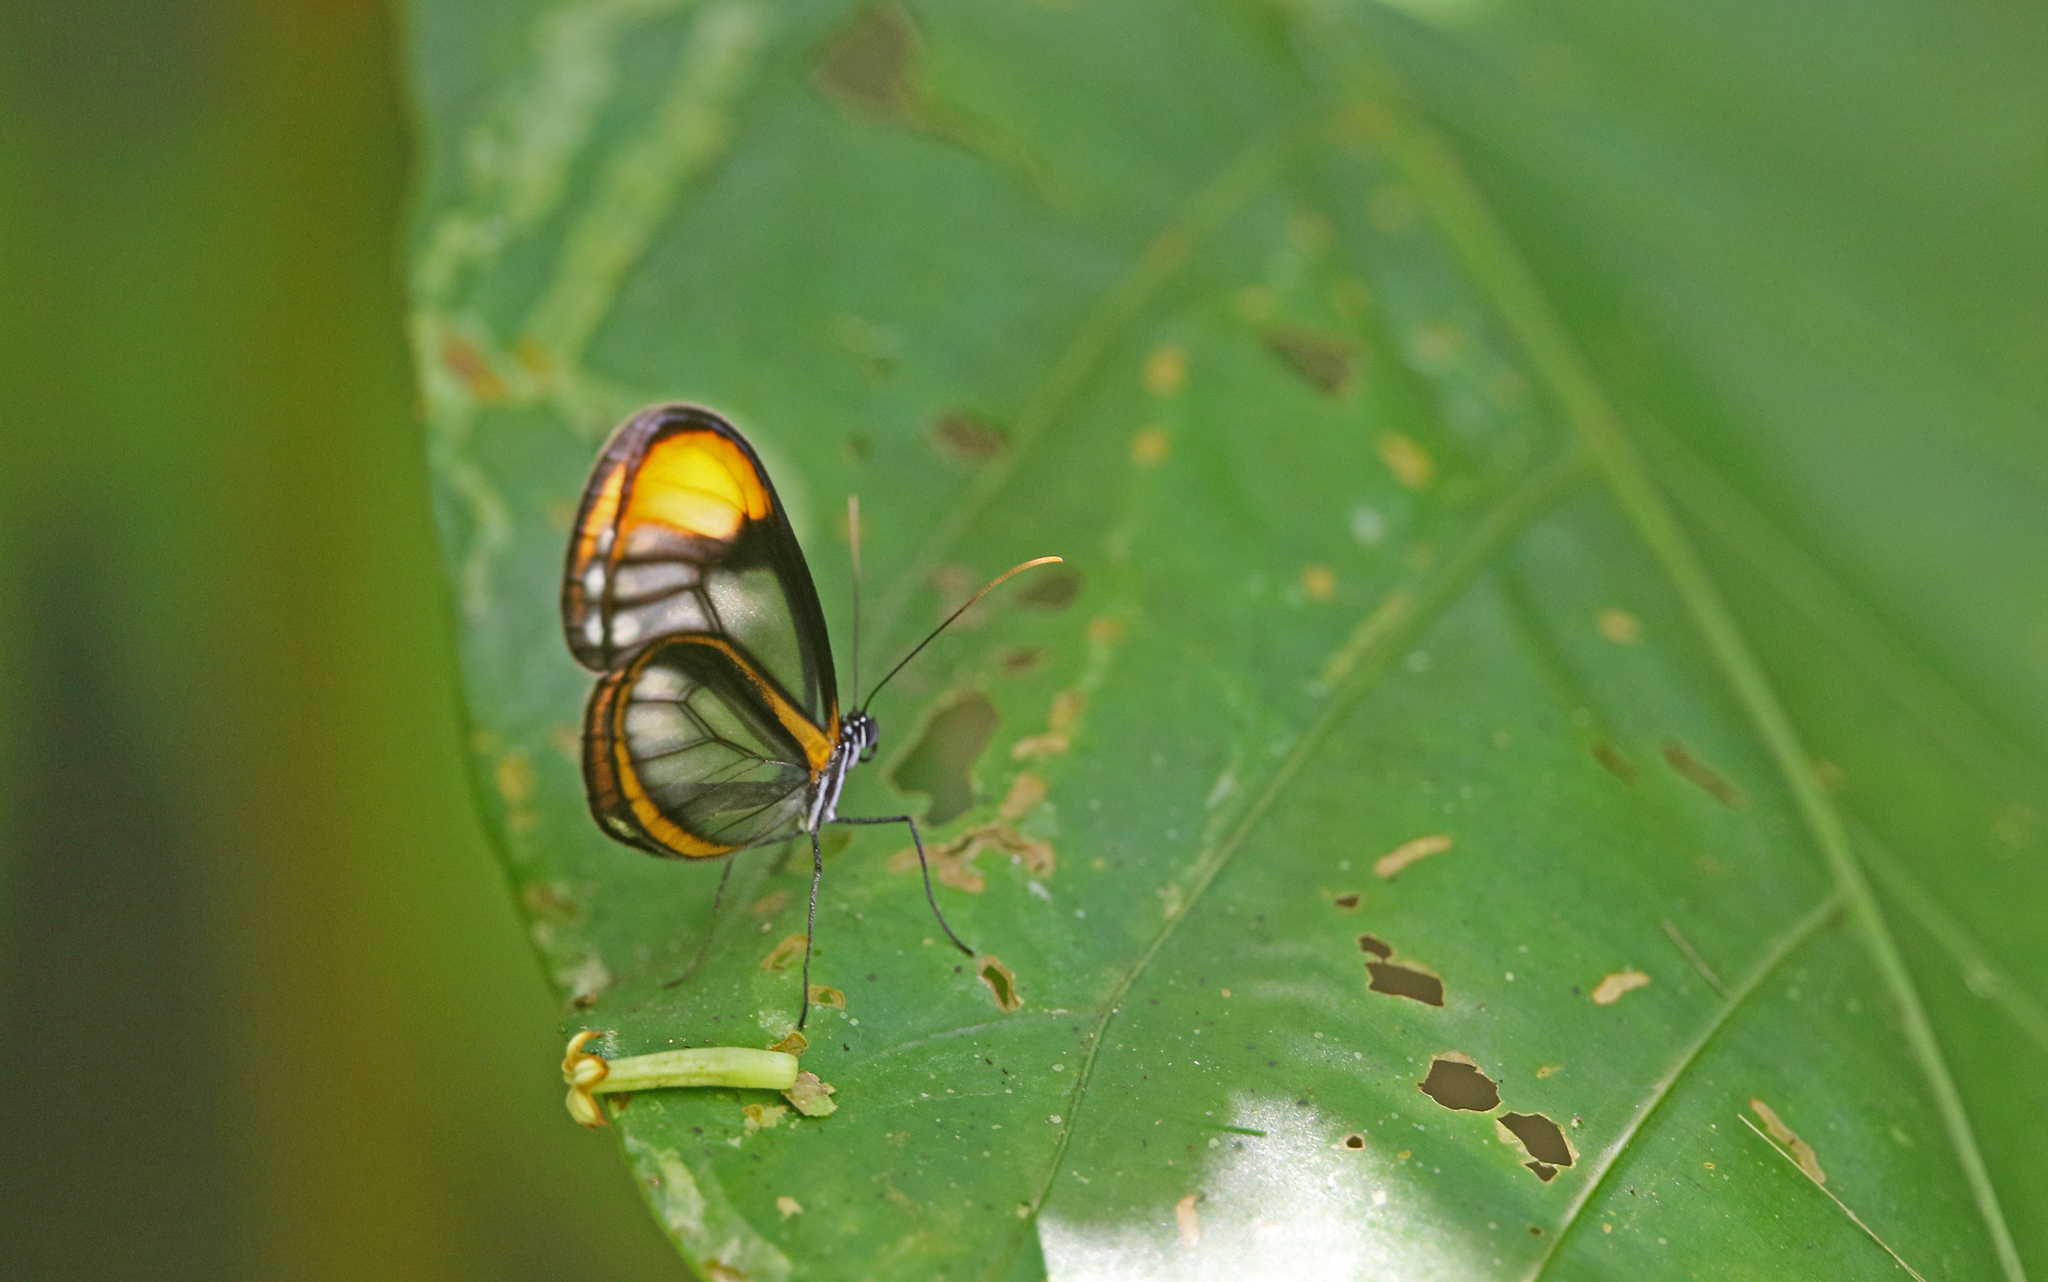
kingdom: Animalia
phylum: Arthropoda
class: Insecta
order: Lepidoptera
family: Nymphalidae
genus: Hypoleria
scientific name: Hypoleria lavinia
